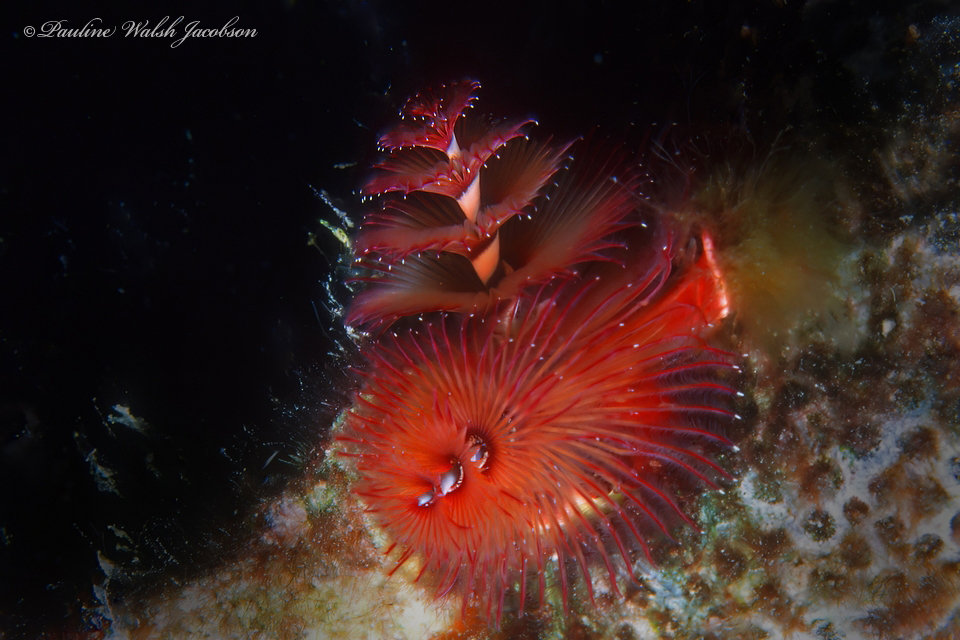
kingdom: Animalia
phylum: Annelida
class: Polychaeta
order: Sabellida
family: Serpulidae
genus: Spirobranchus
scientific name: Spirobranchus giganteus
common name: Christmas tree worm
